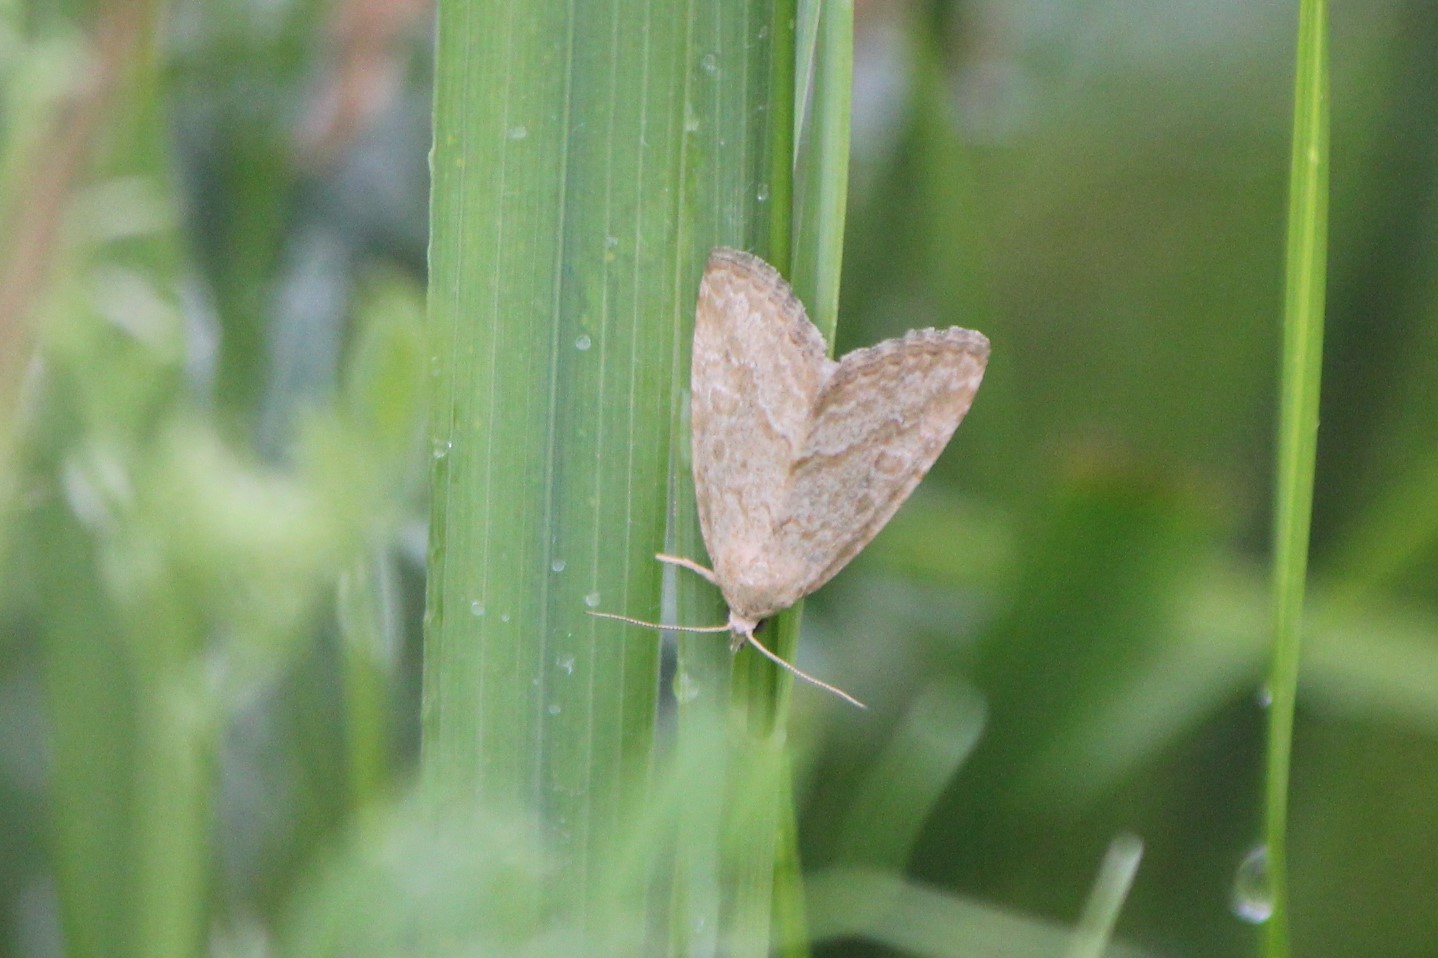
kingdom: Animalia
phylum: Arthropoda
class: Insecta
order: Lepidoptera
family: Noctuidae
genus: Protodeltote
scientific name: Protodeltote albidula
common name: Pale glyph
